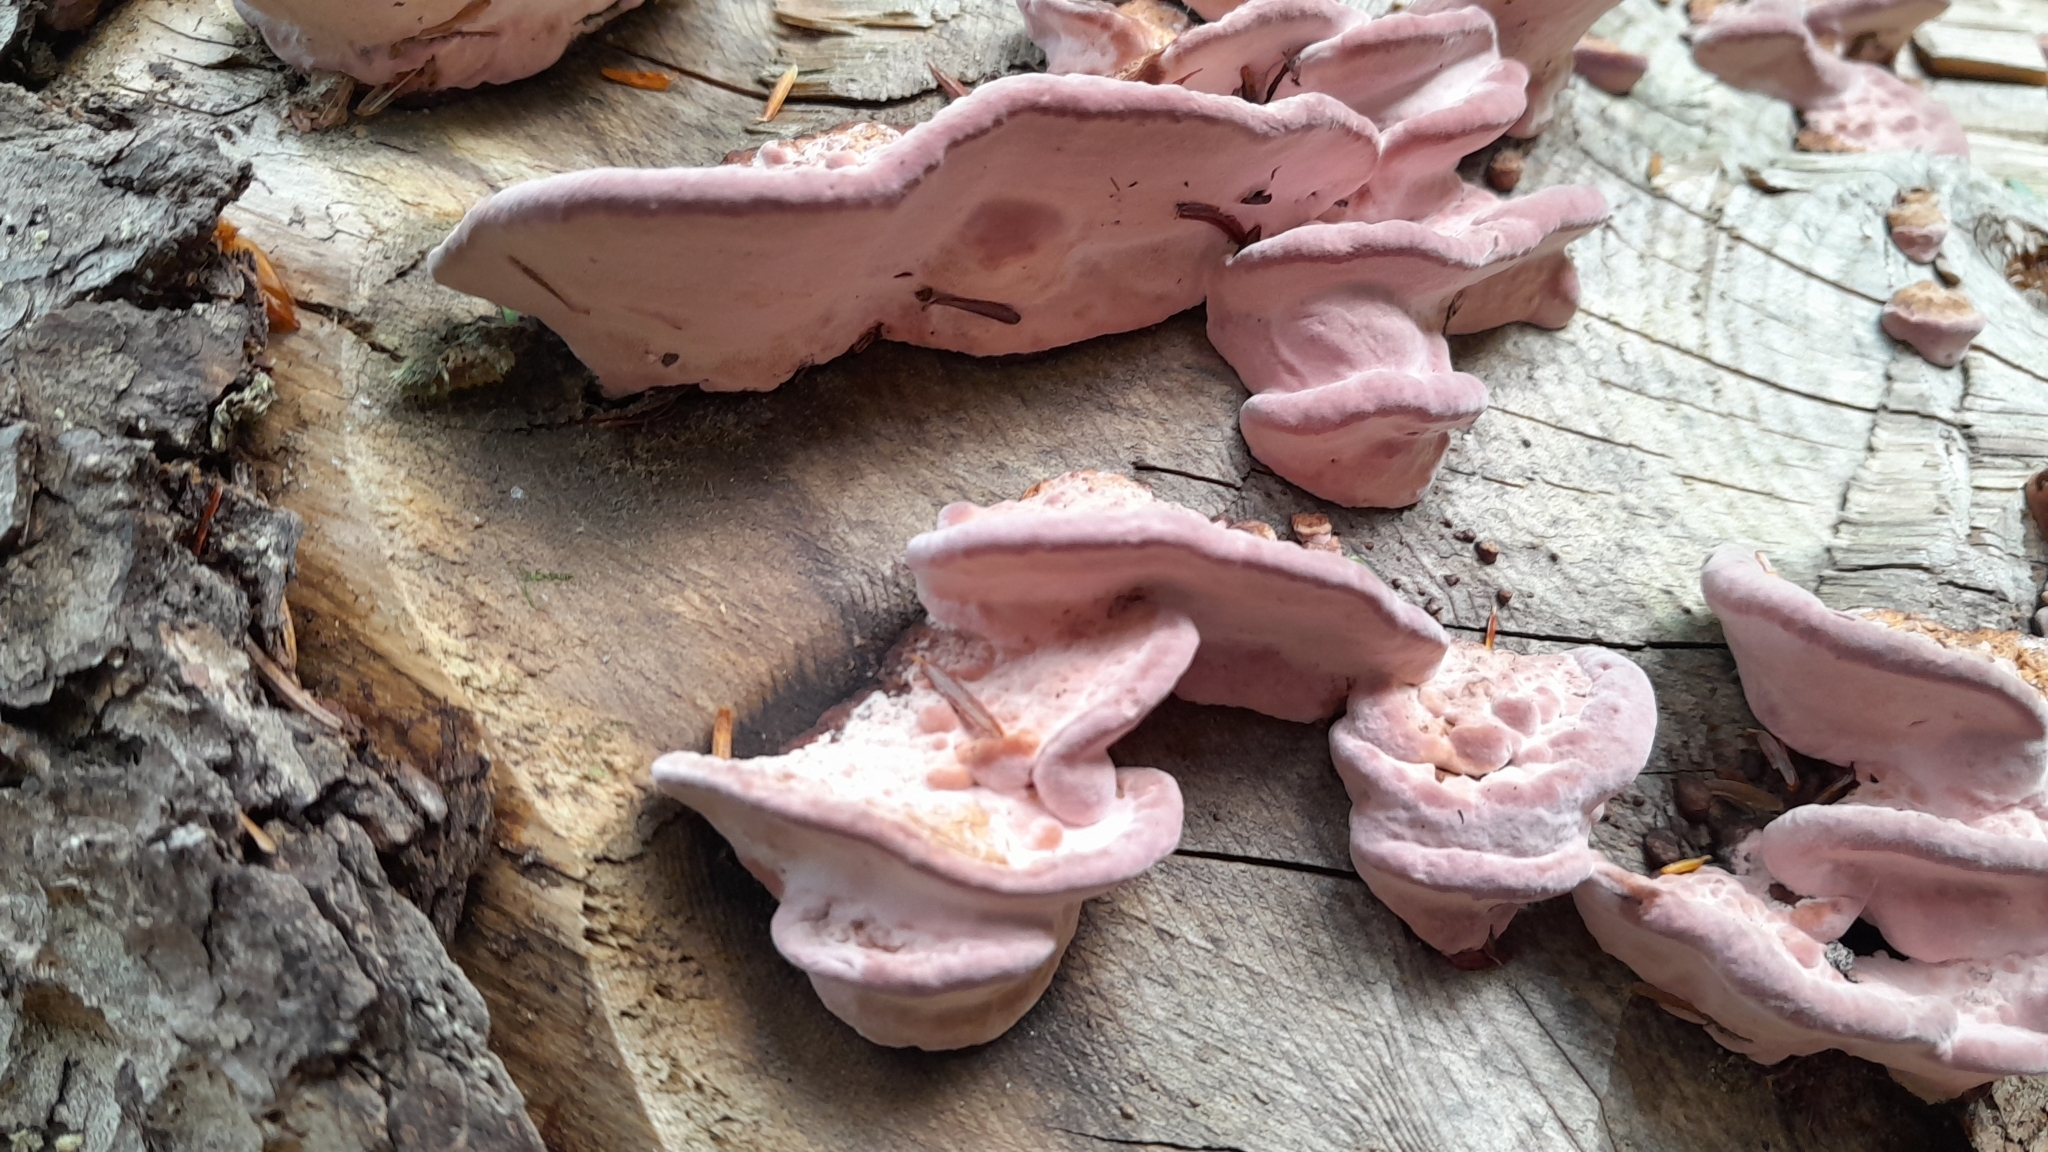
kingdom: Fungi
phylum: Basidiomycota
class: Agaricomycetes
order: Polyporales
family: Fomitopsidaceae
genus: Rhodofomes
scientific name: Rhodofomes cajanderi
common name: Rosy conk
